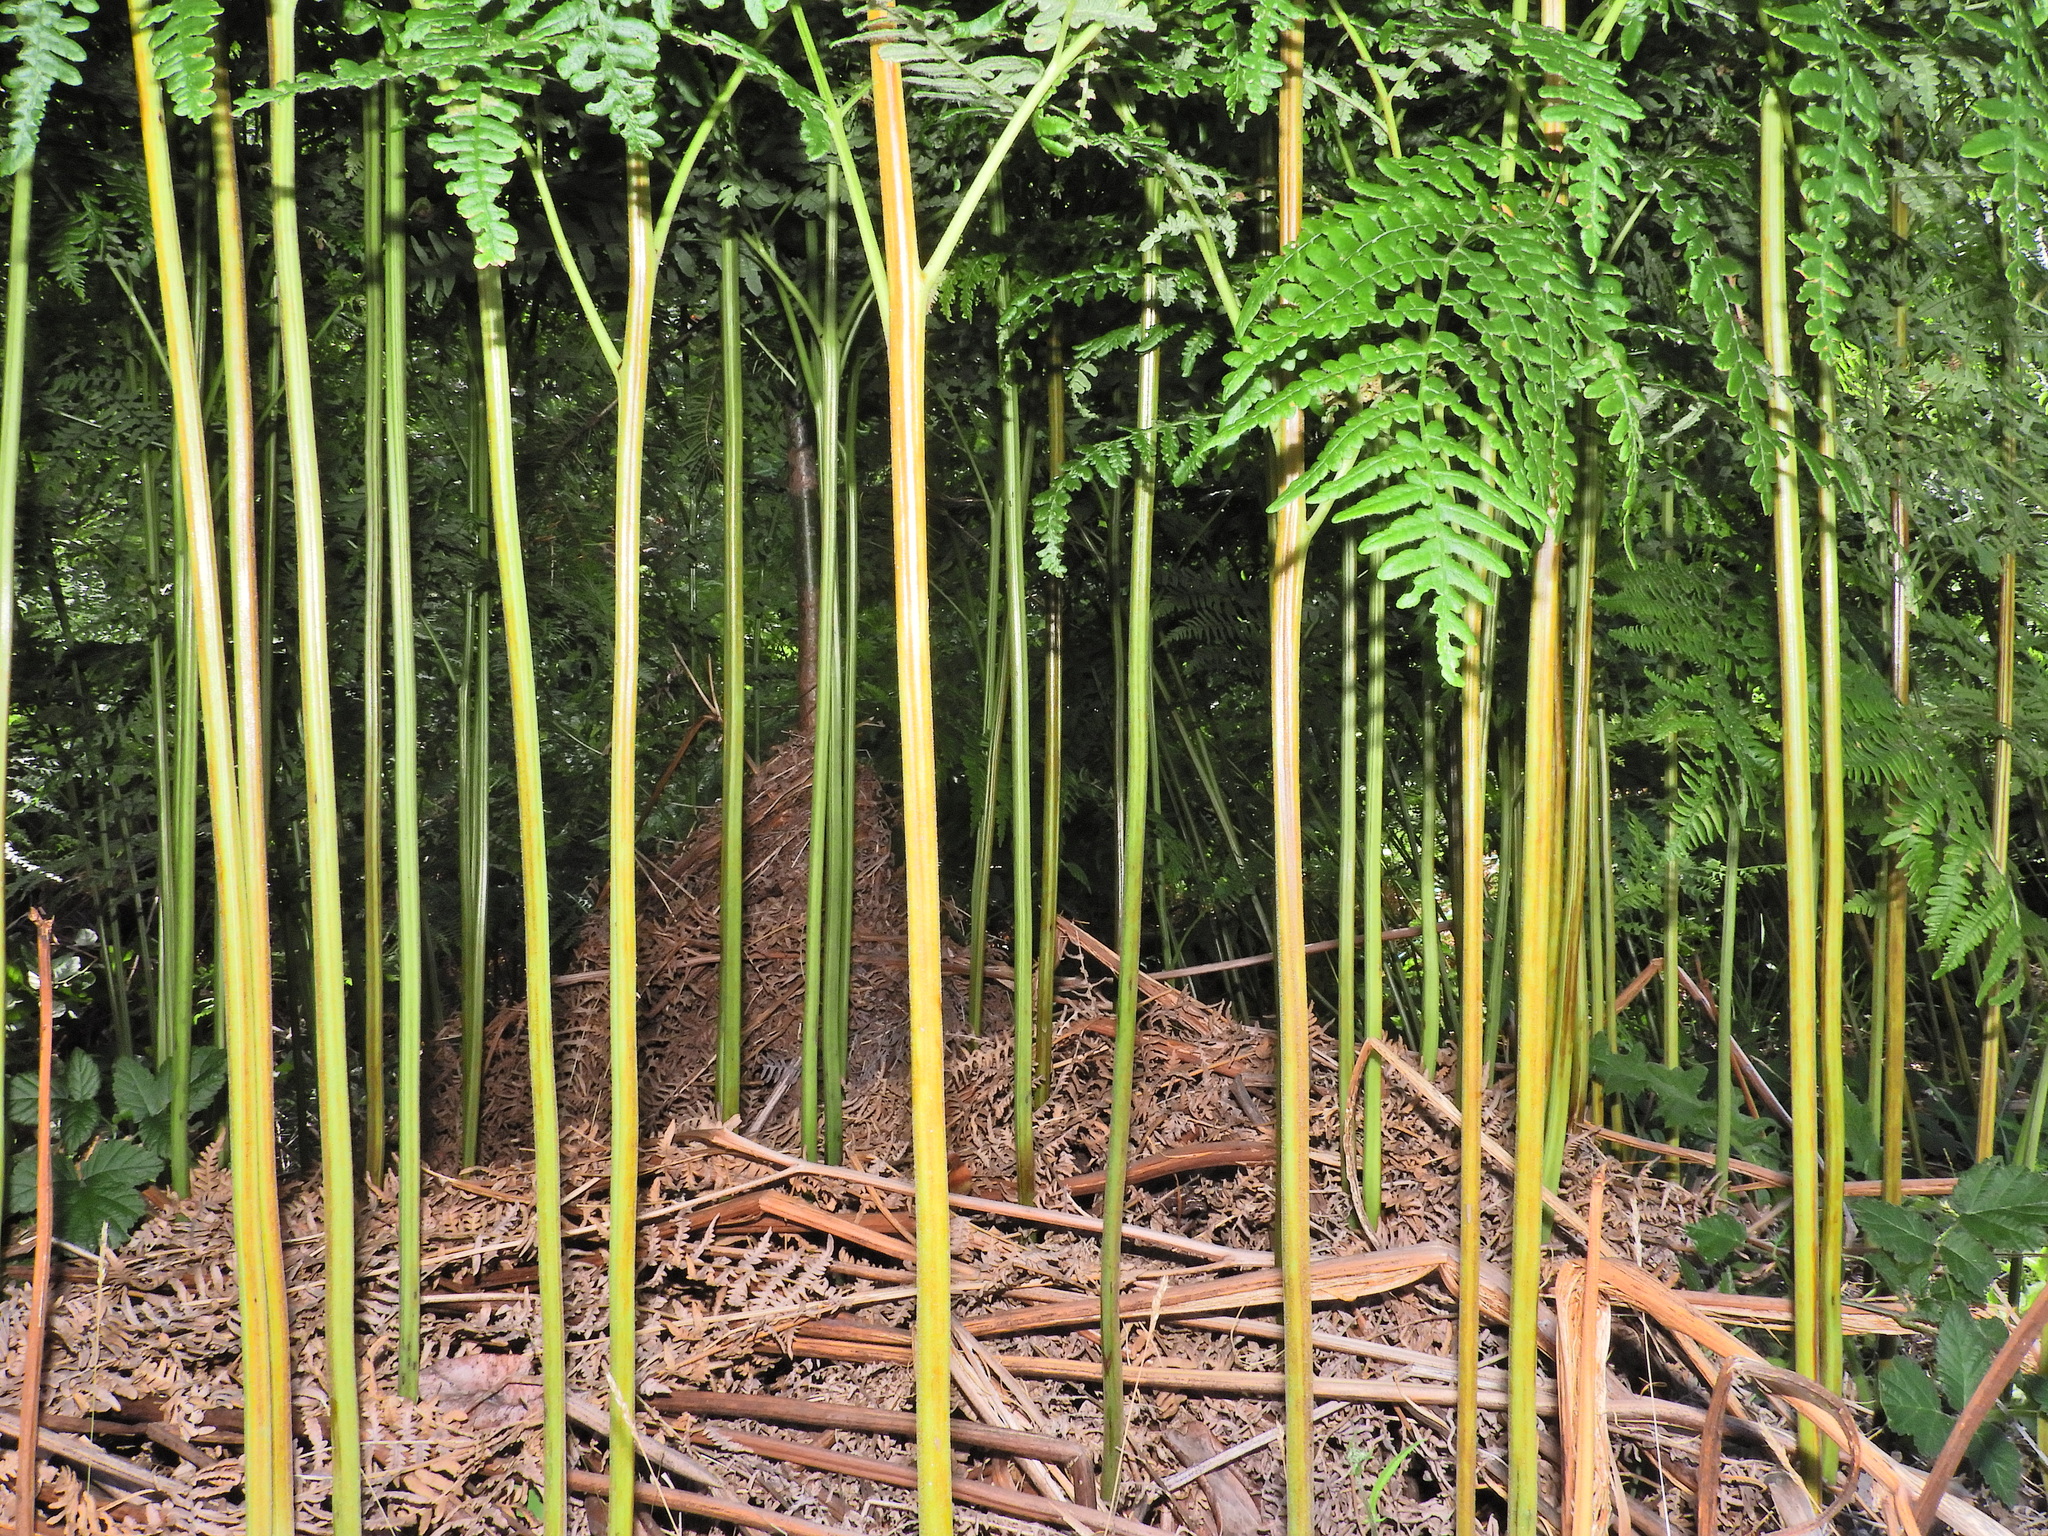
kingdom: Plantae
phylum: Tracheophyta
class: Polypodiopsida
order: Polypodiales
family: Dennstaedtiaceae
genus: Pteridium
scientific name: Pteridium aquilinum
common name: Bracken
